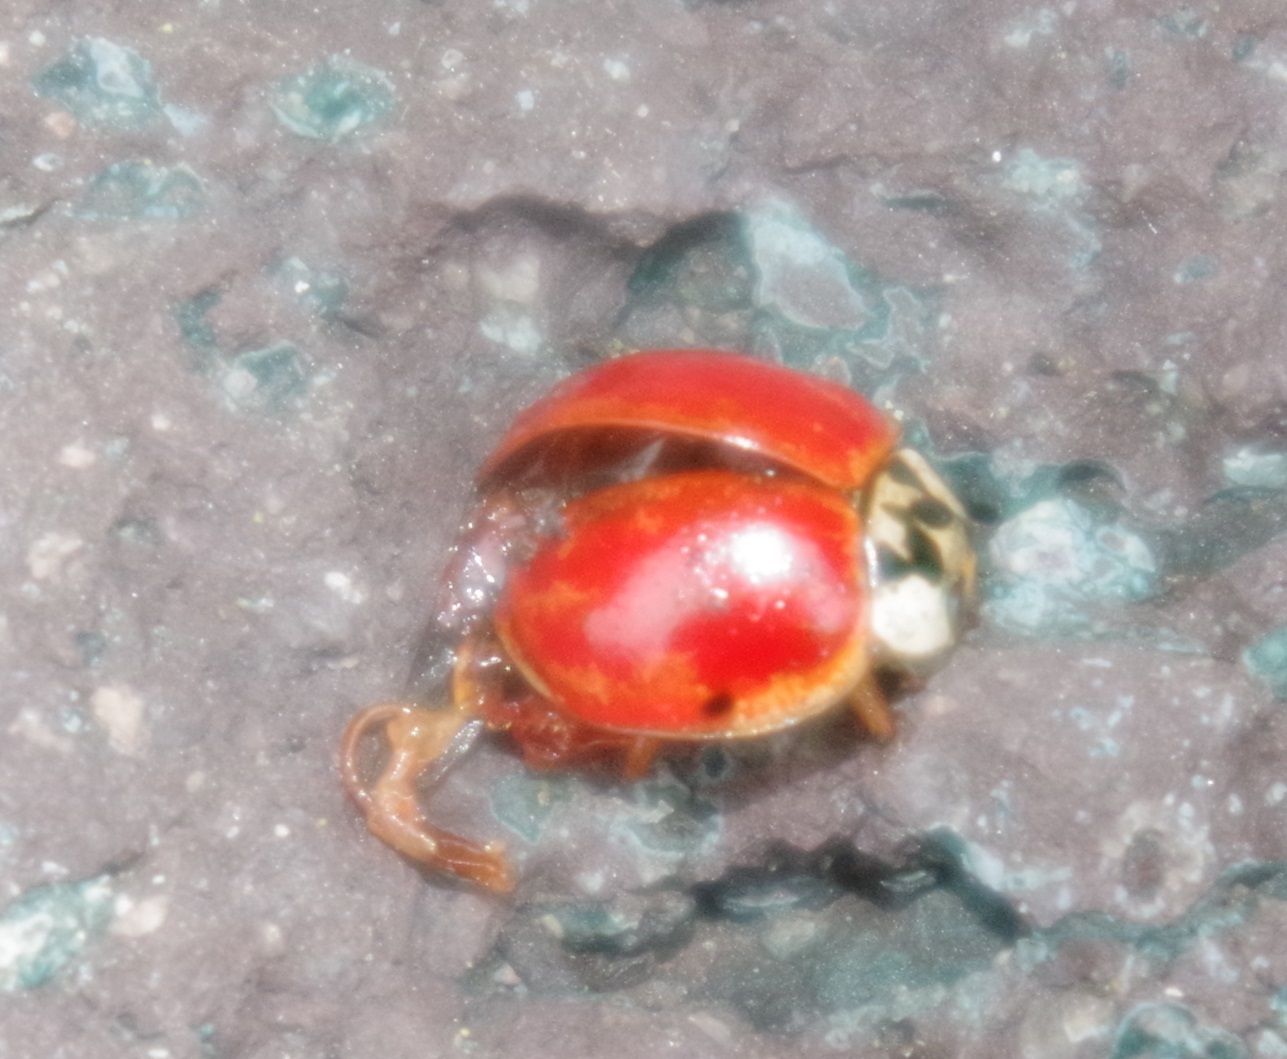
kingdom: Animalia
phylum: Arthropoda
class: Insecta
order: Coleoptera
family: Coccinellidae
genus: Harmonia
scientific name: Harmonia axyridis
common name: Harlequin ladybird
